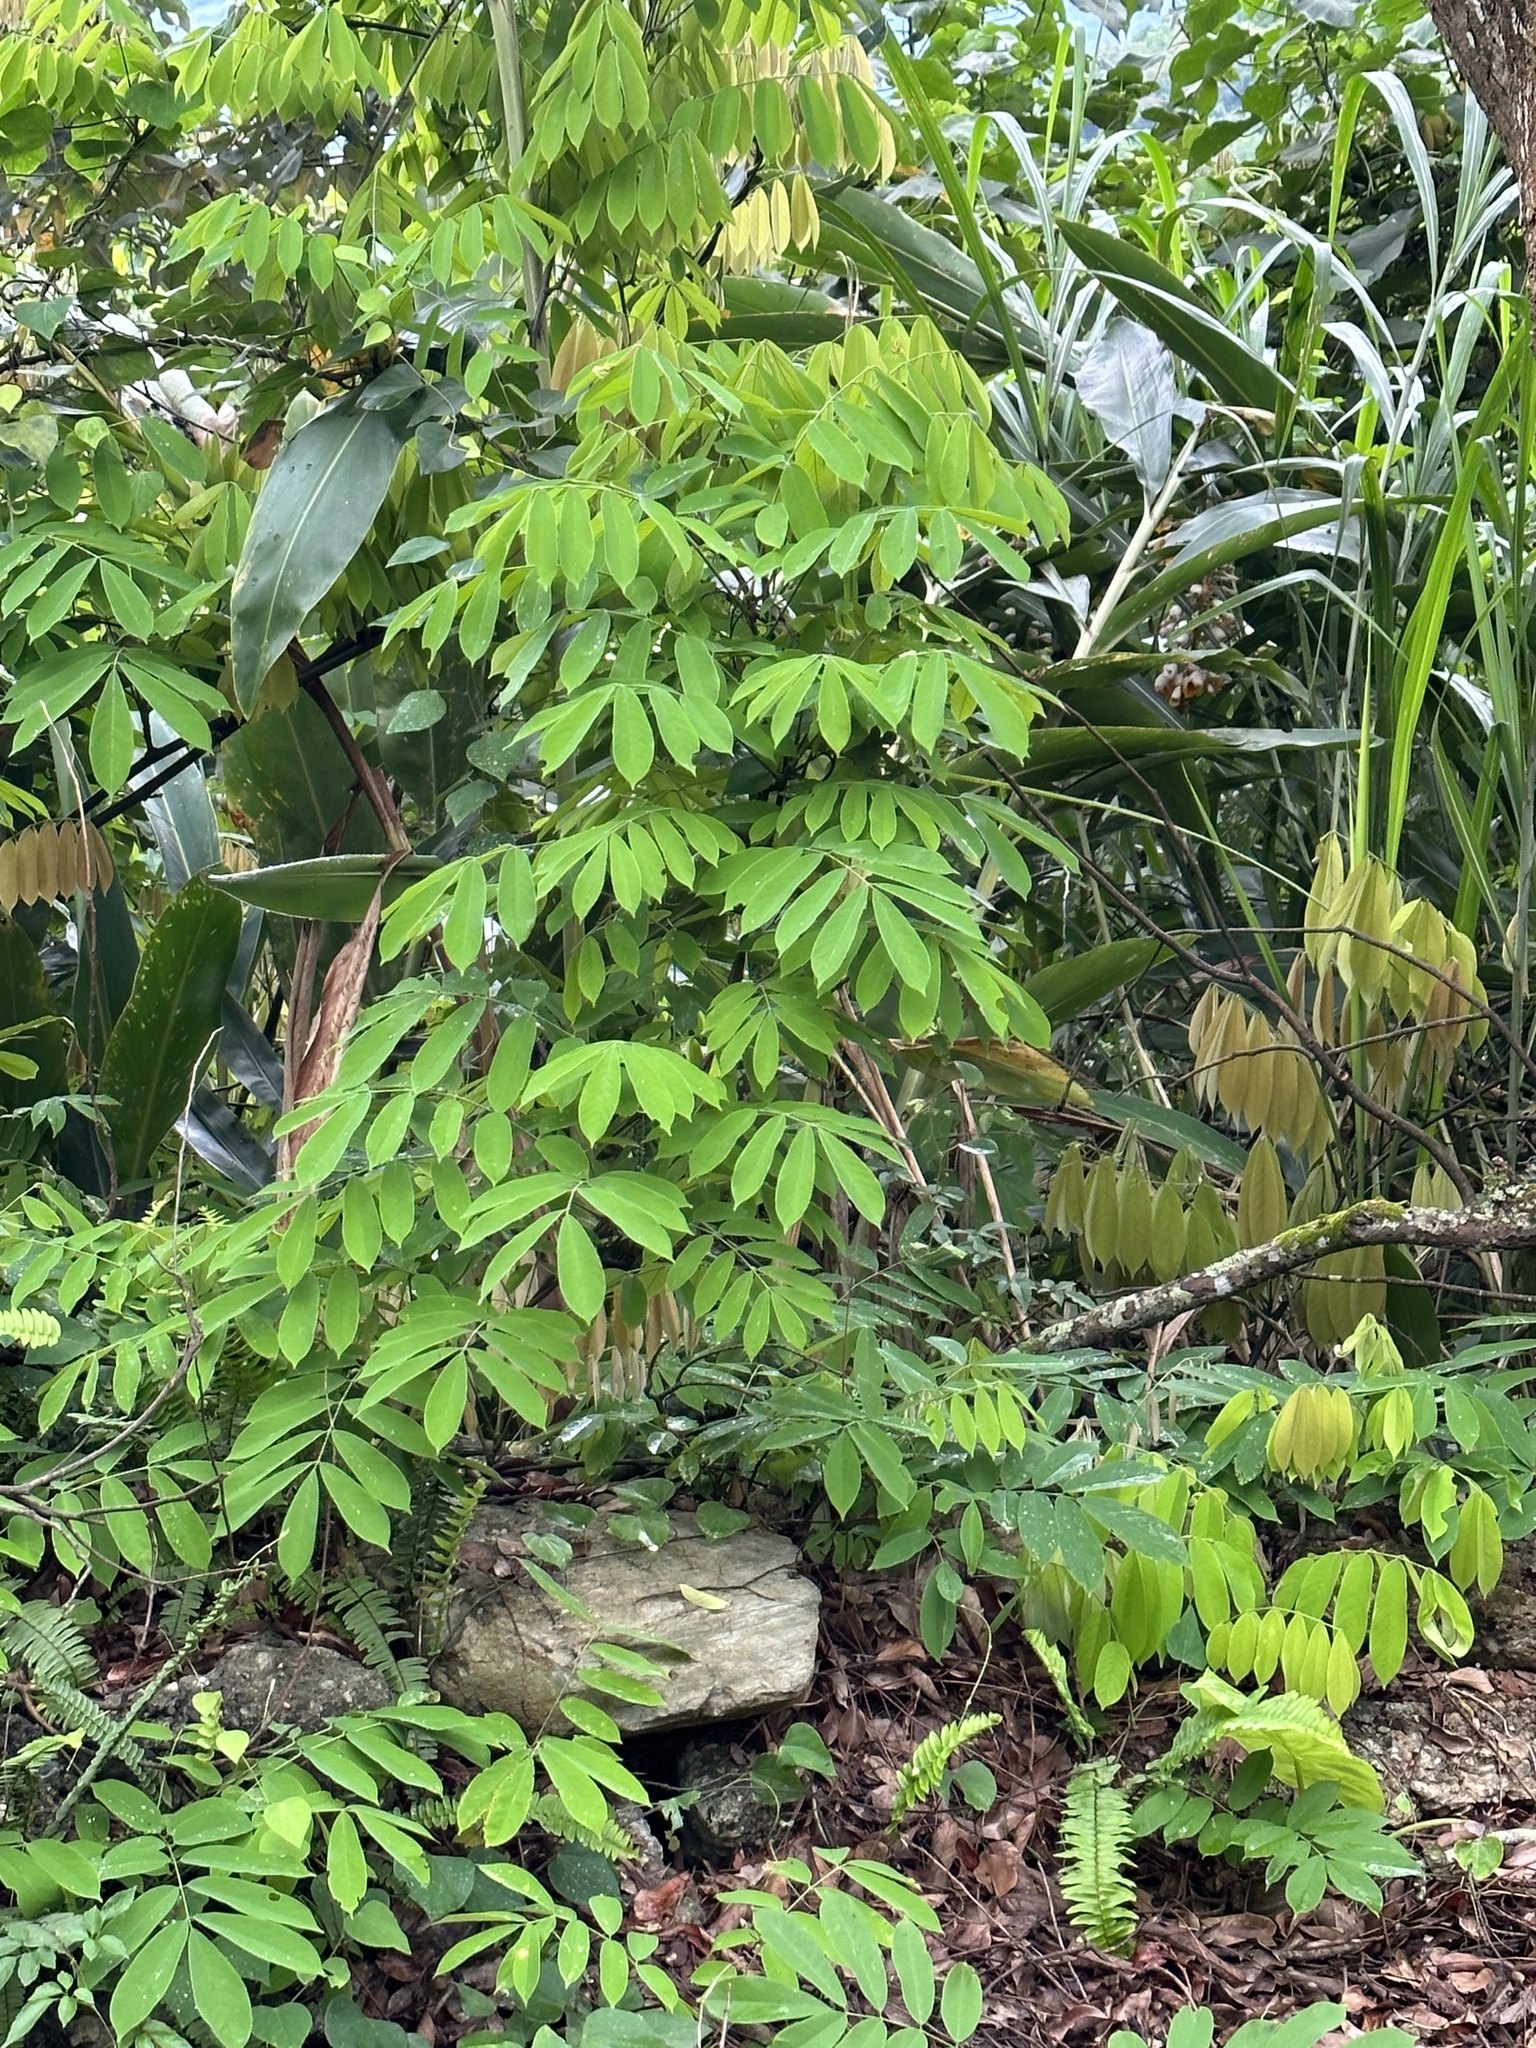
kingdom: Plantae
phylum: Tracheophyta
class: Magnoliopsida
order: Fabales
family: Fabaceae
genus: Millettia
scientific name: Millettia pachycarpa
